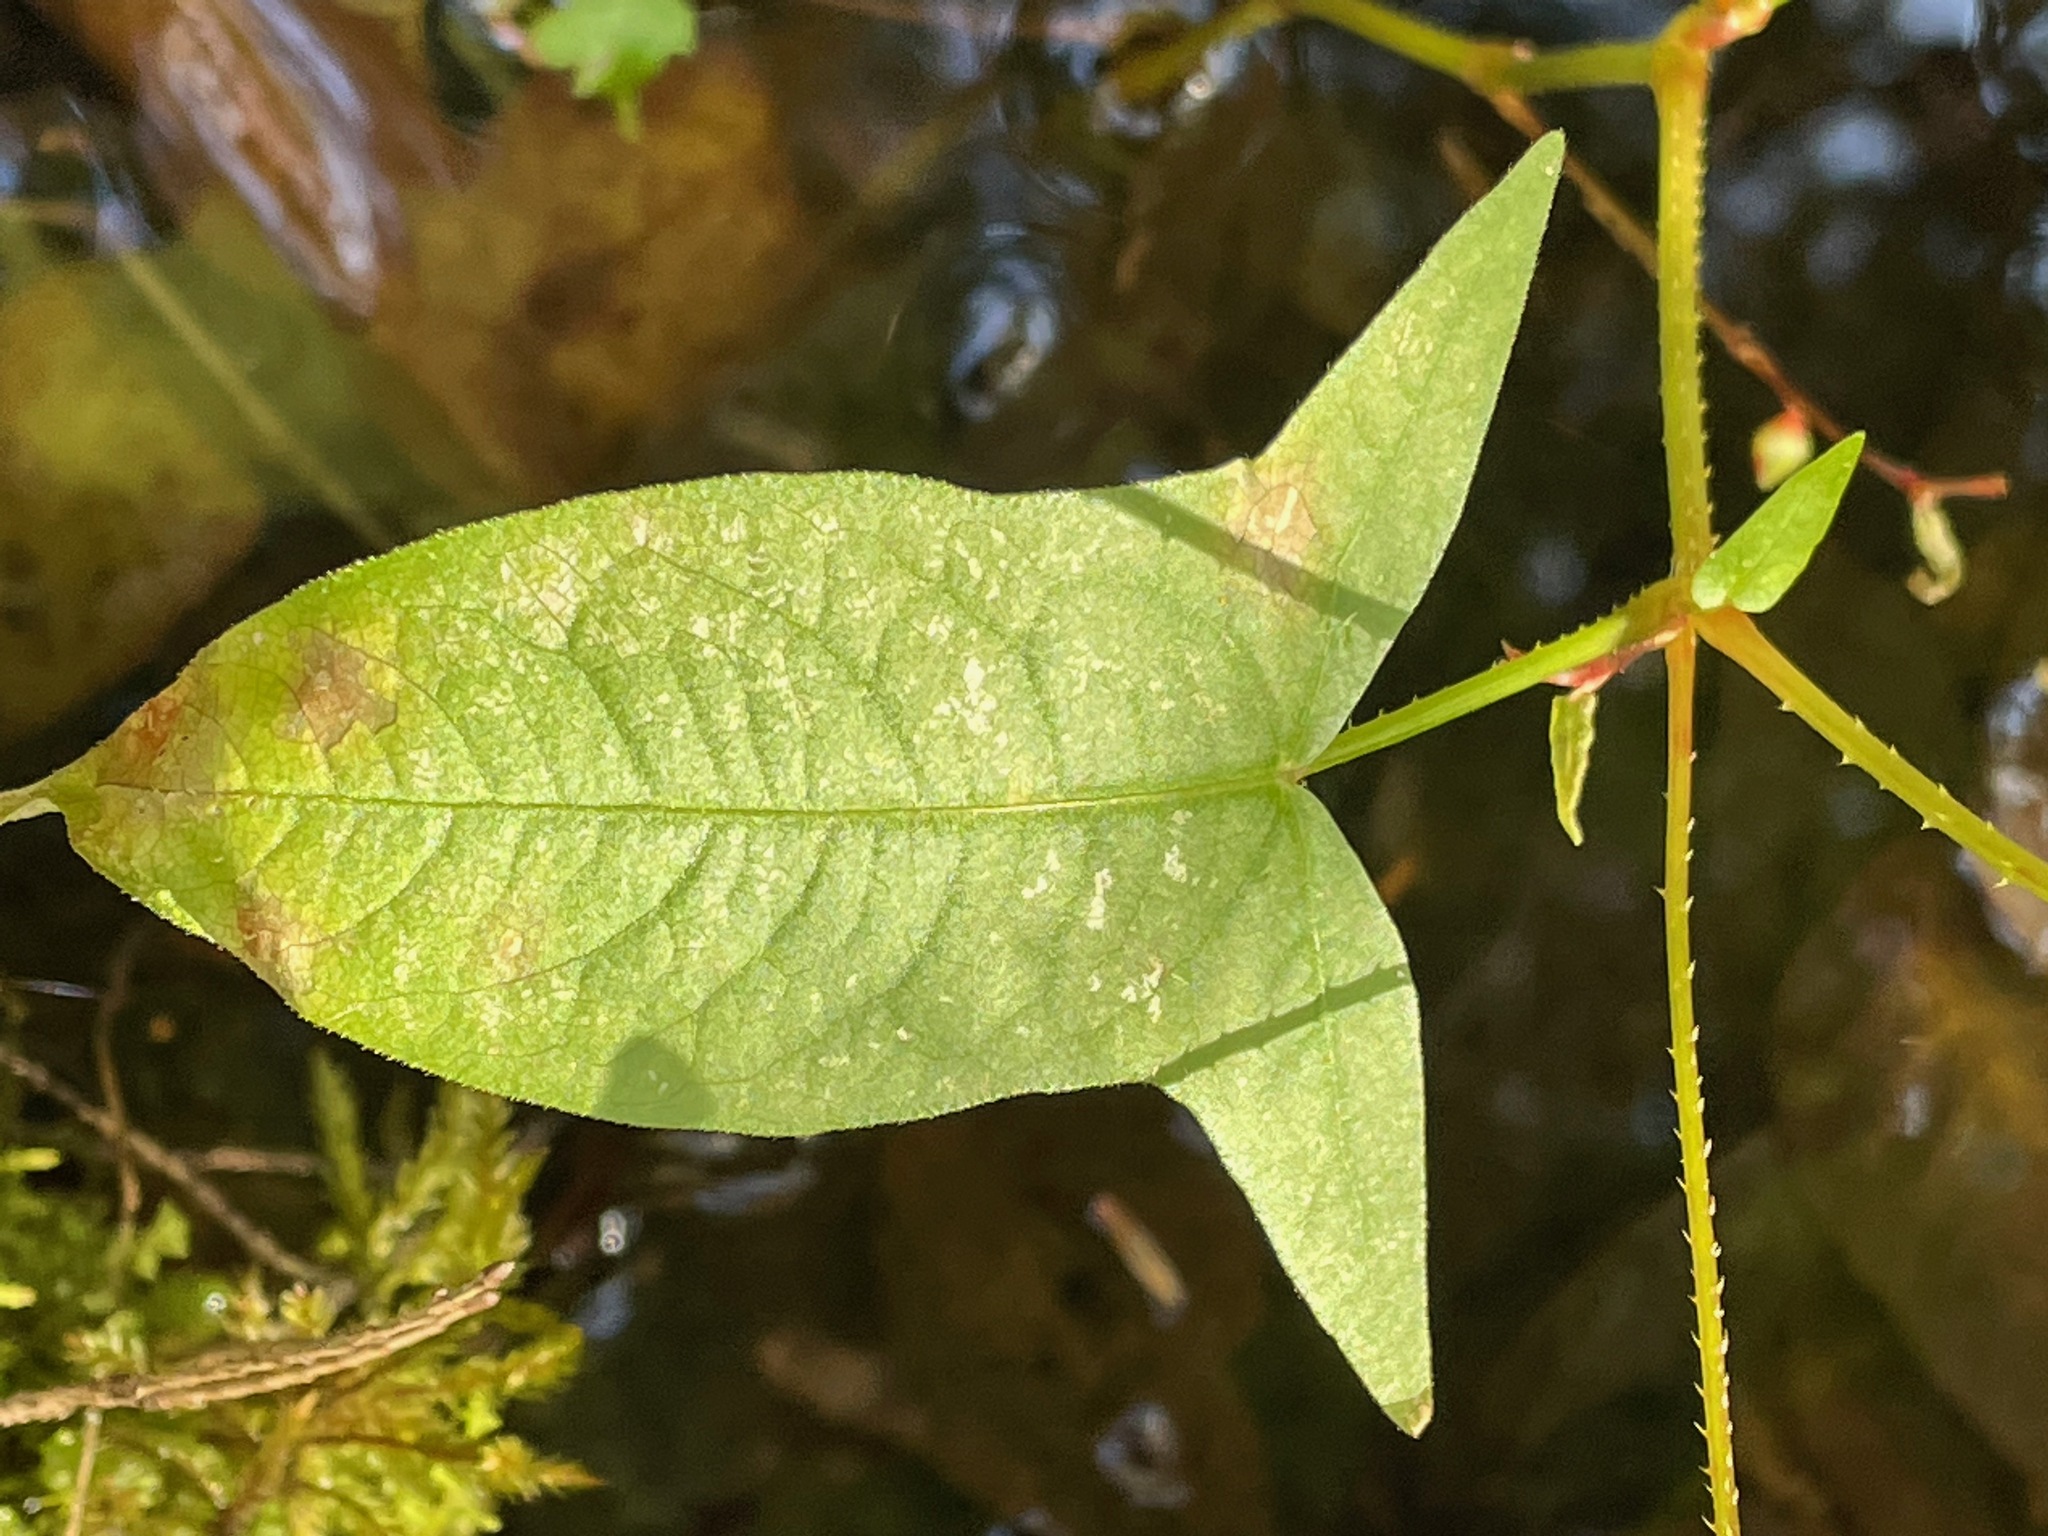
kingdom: Plantae
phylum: Tracheophyta
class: Magnoliopsida
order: Caryophyllales
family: Polygonaceae
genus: Persicaria
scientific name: Persicaria arifolia
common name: Halberd-leaved tear-thumb
